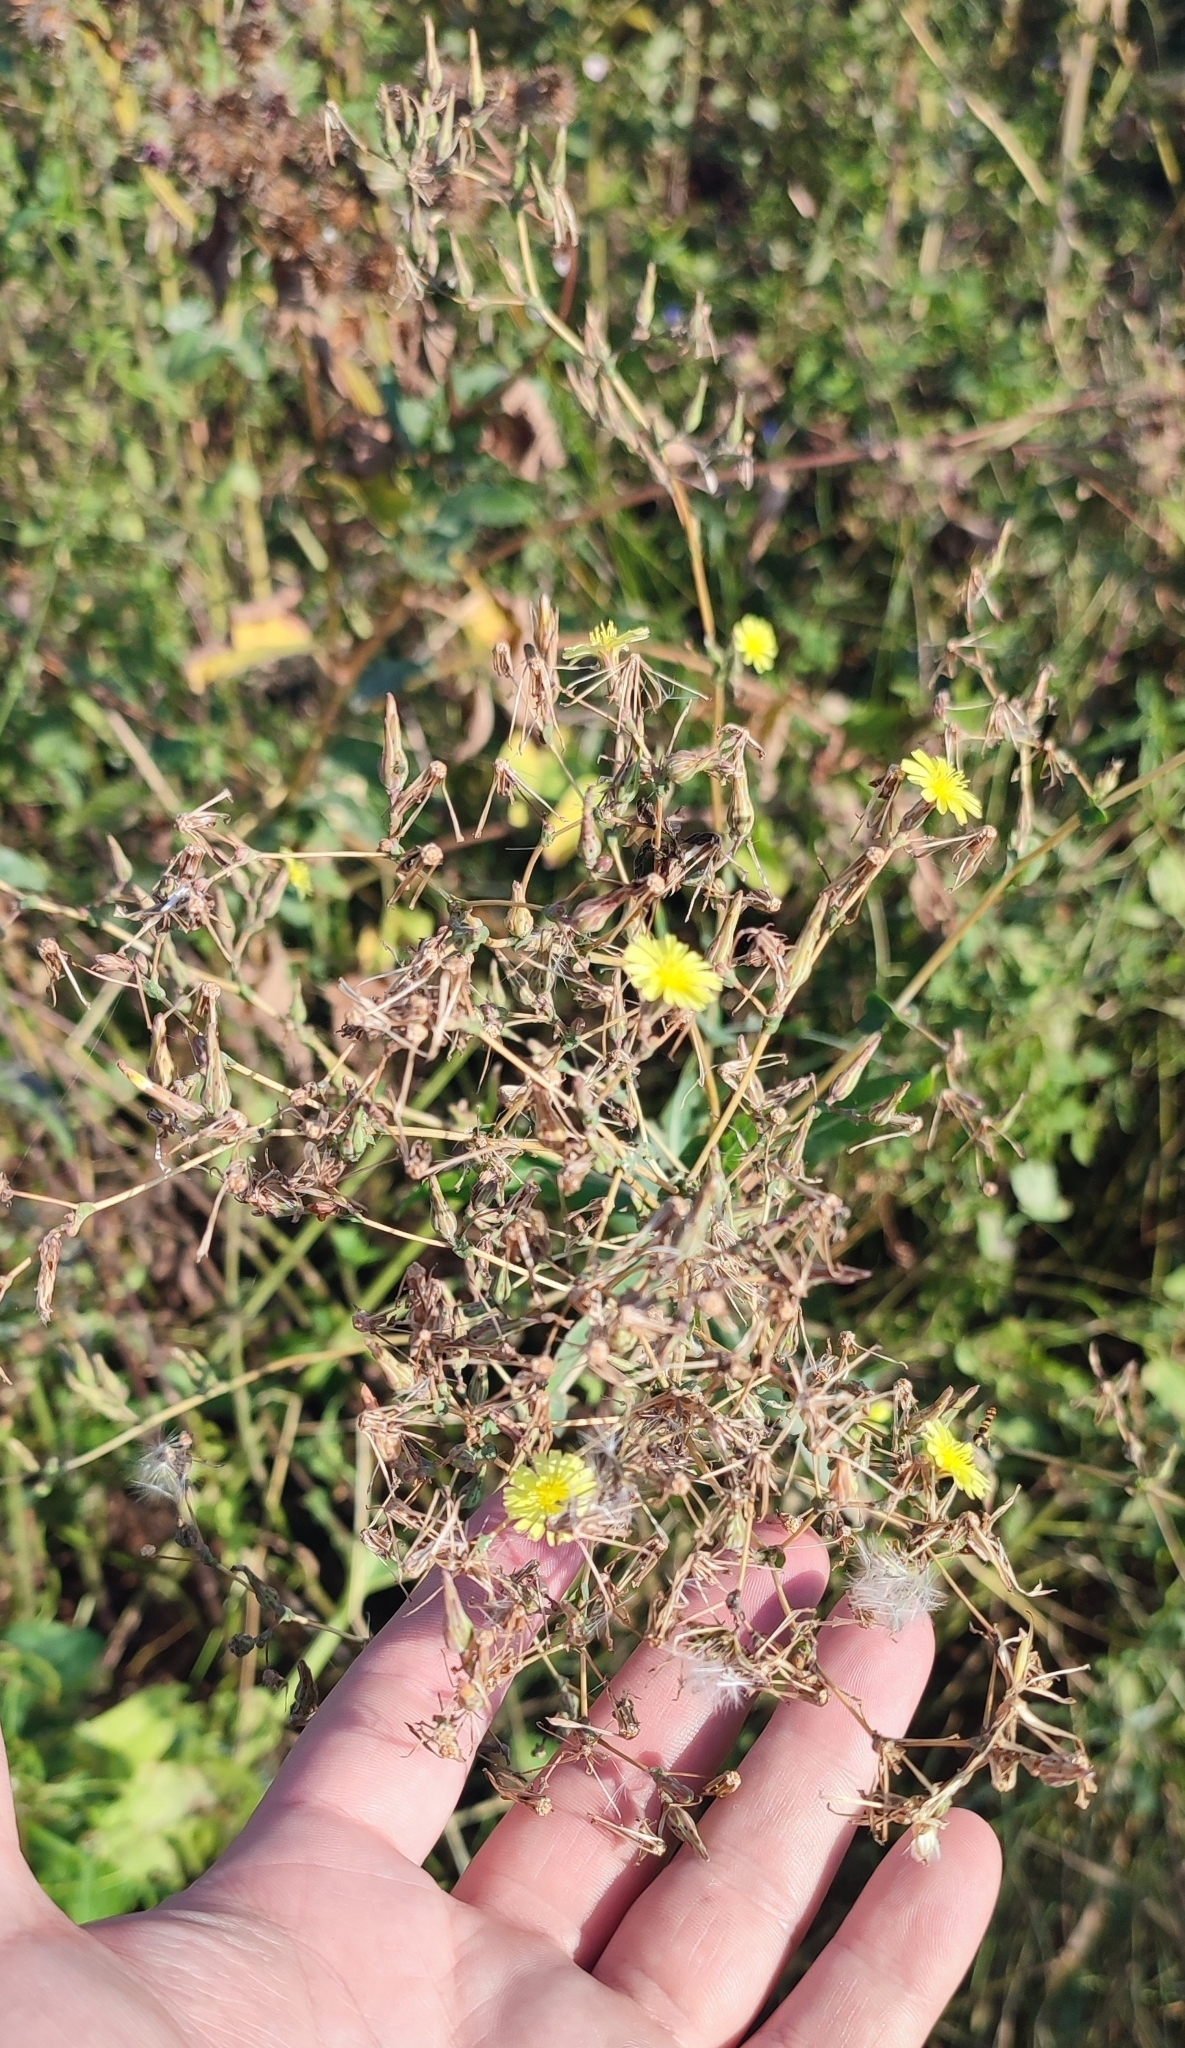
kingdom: Plantae
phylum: Tracheophyta
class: Magnoliopsida
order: Asterales
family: Asteraceae
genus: Lactuca
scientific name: Lactuca serriola
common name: Prickly lettuce
